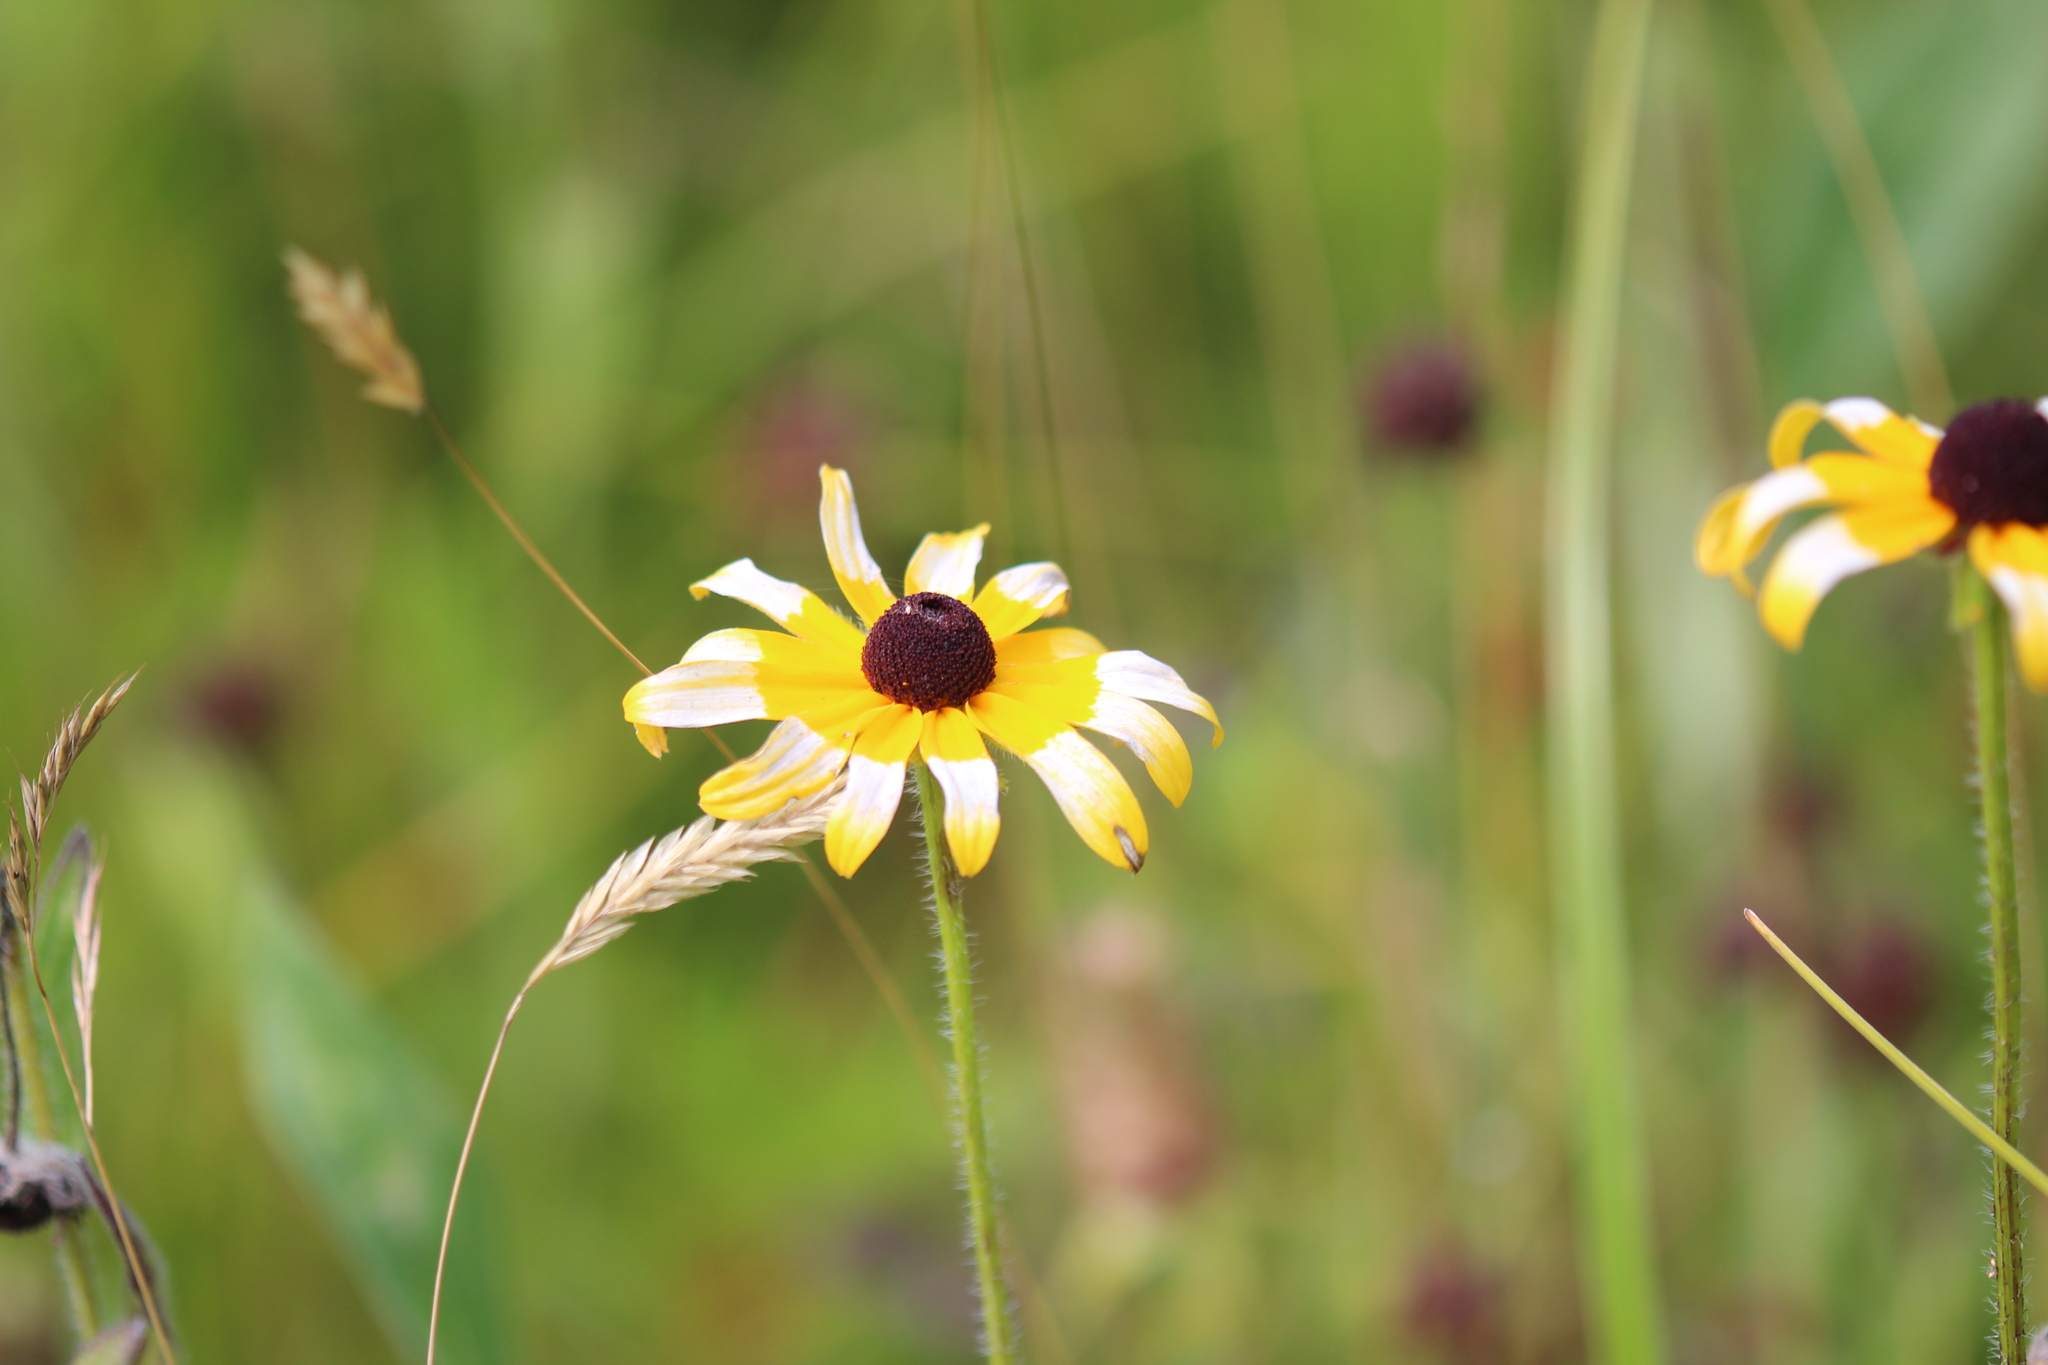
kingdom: Plantae
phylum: Tracheophyta
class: Magnoliopsida
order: Asterales
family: Asteraceae
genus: Rudbeckia
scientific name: Rudbeckia hirta
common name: Black-eyed-susan
